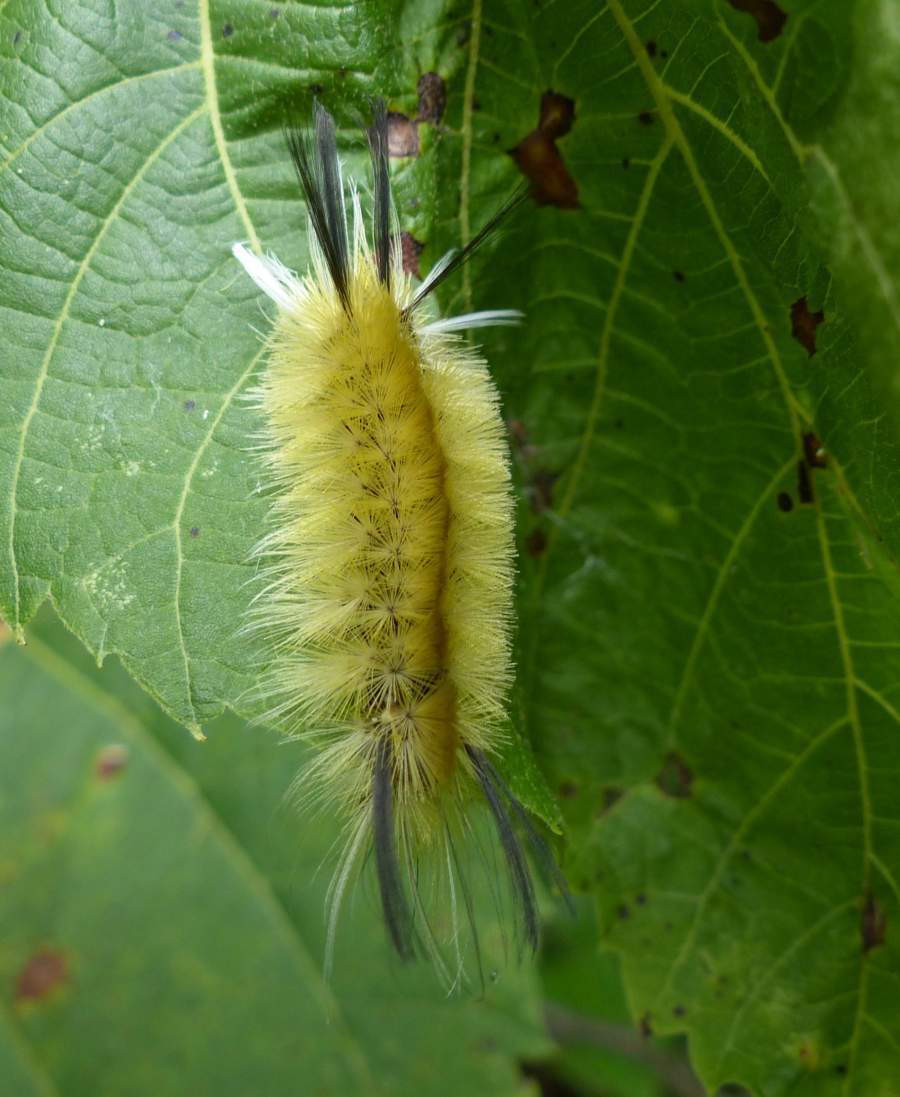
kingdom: Animalia
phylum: Arthropoda
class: Insecta
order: Lepidoptera
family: Erebidae
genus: Halysidota
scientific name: Halysidota tessellaris
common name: Banded tussock moth
